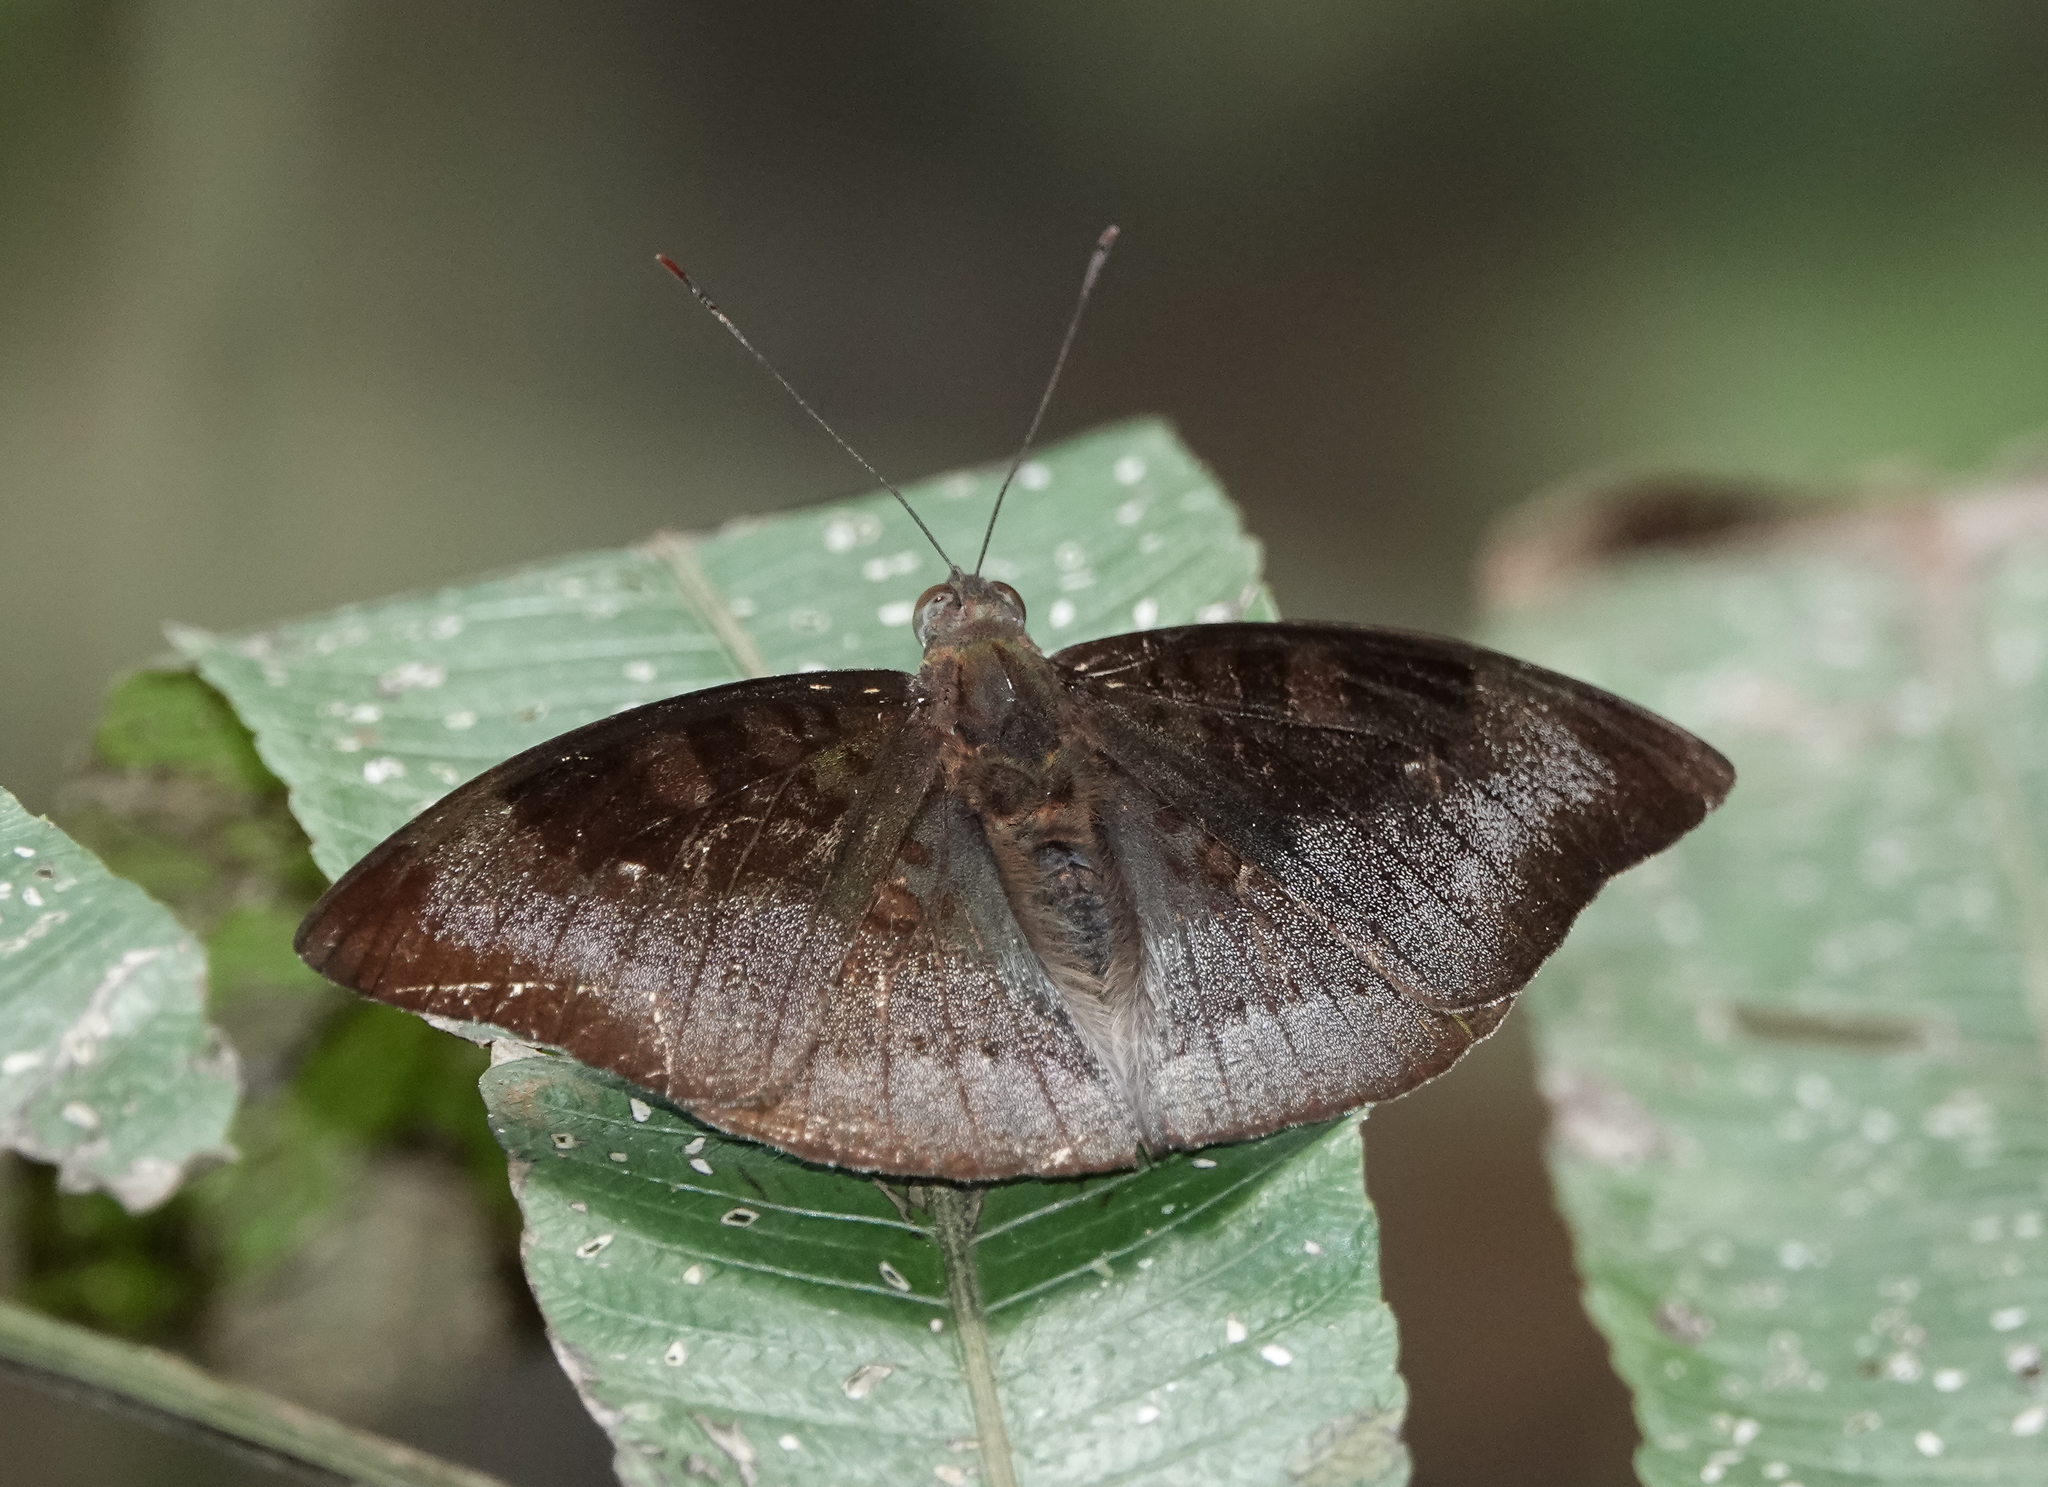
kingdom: Animalia
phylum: Arthropoda
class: Insecta
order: Lepidoptera
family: Nymphalidae
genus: Euthalia
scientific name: Euthalia monina
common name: Powdered baron
